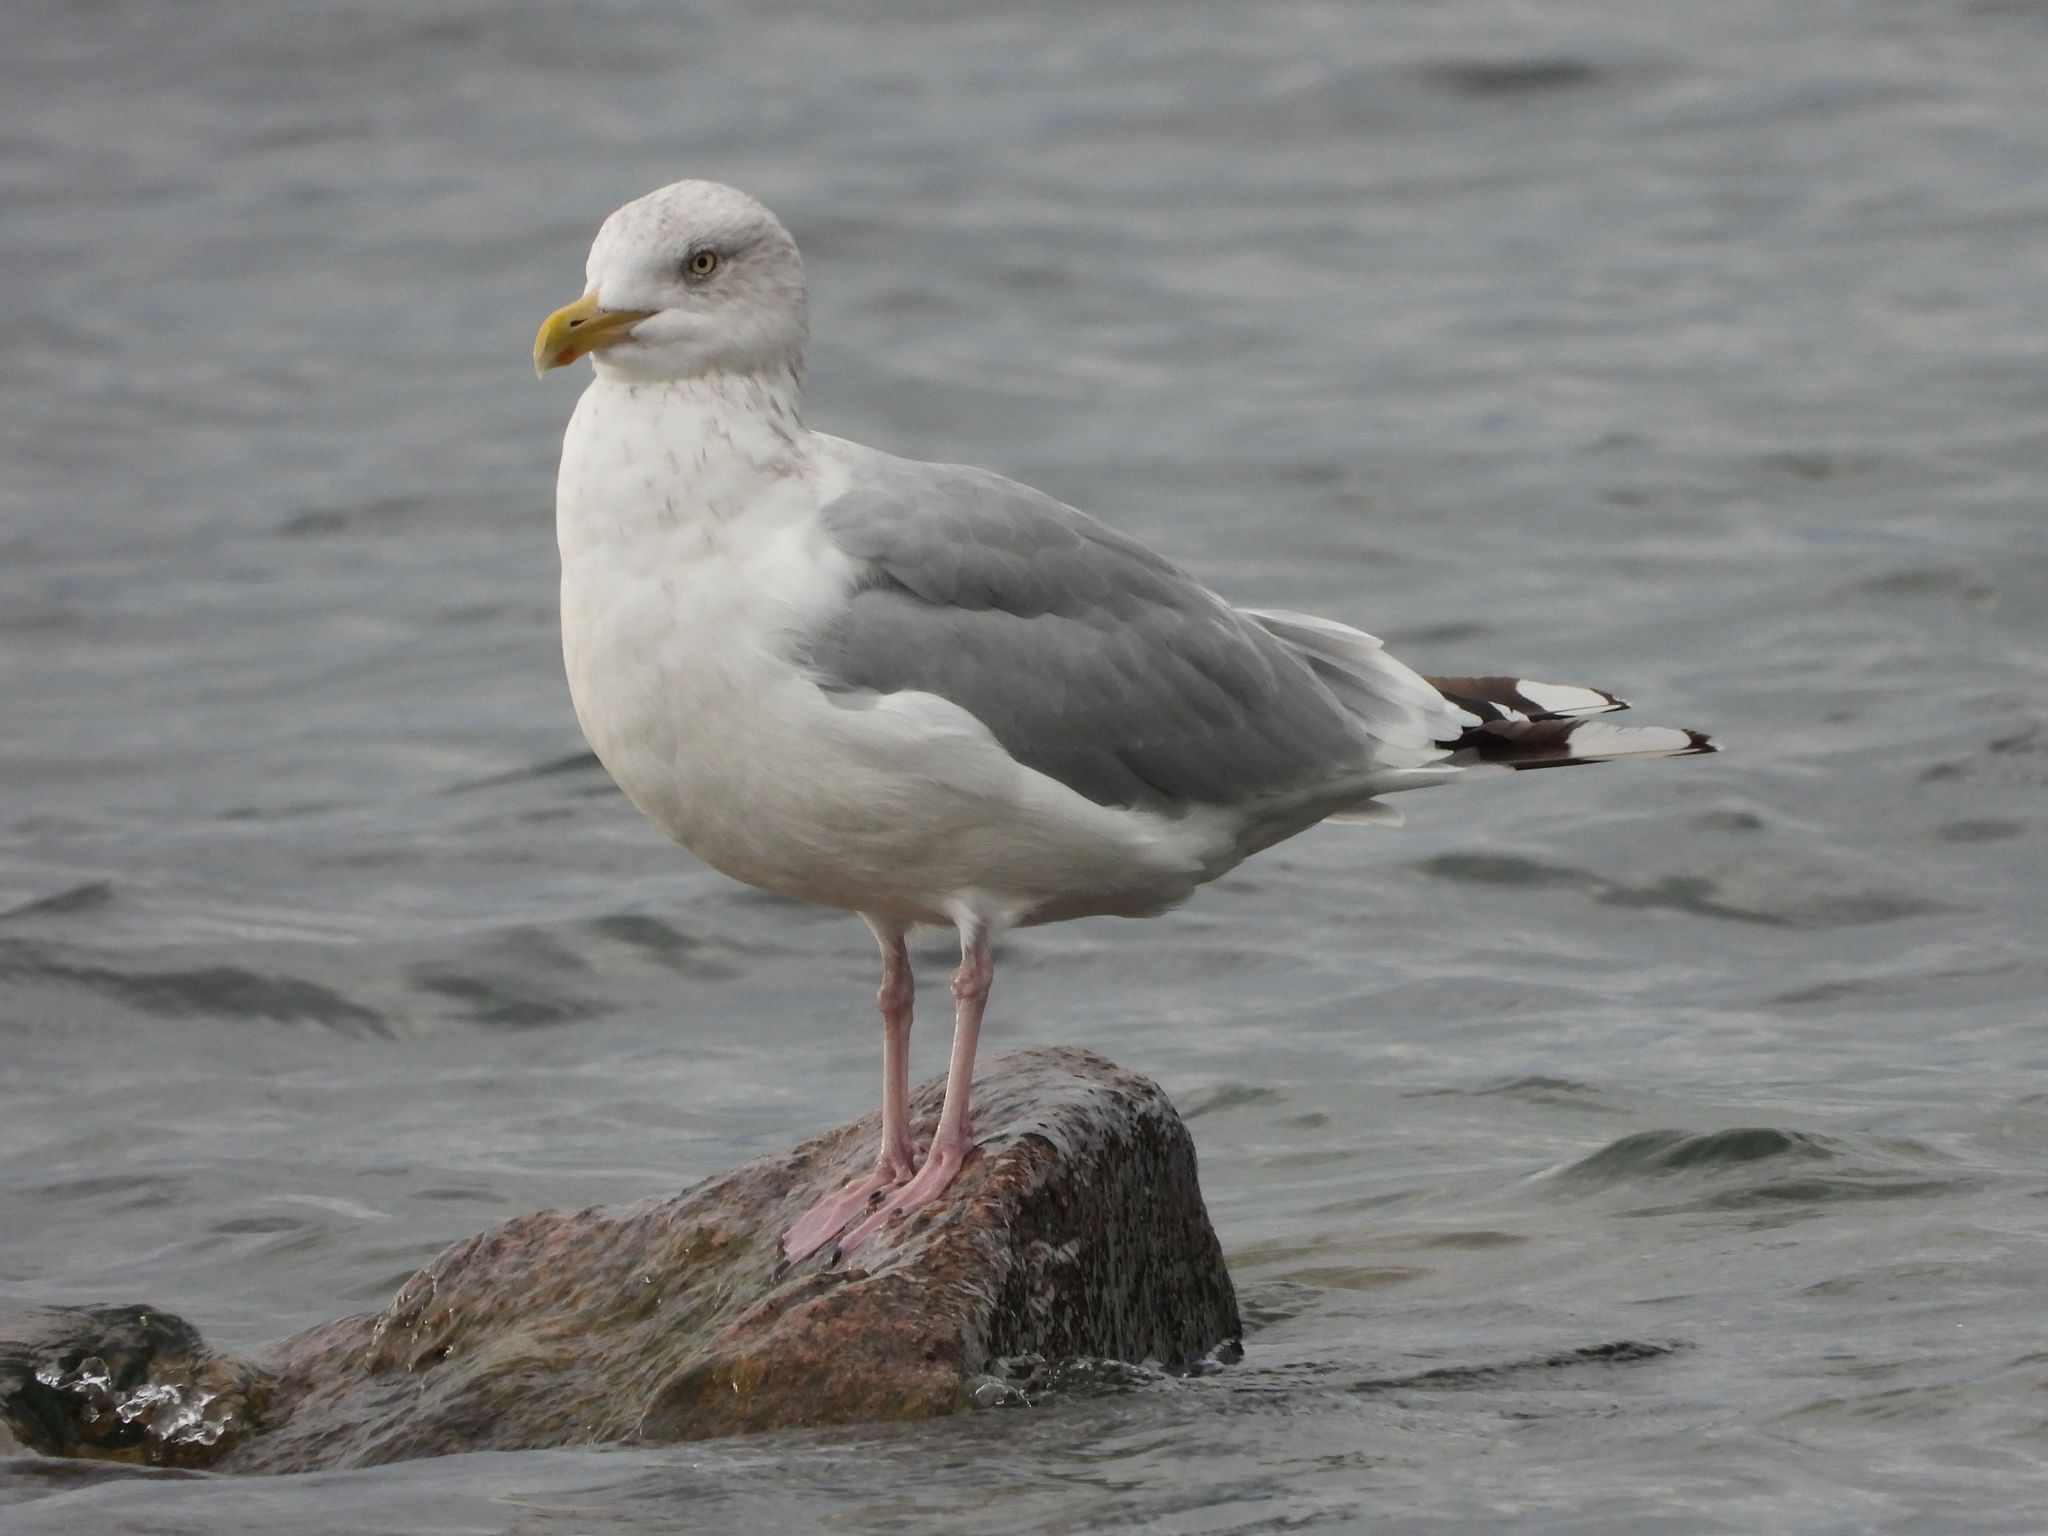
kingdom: Animalia
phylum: Chordata
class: Aves
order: Charadriiformes
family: Laridae
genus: Larus
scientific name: Larus argentatus
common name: Herring gull
